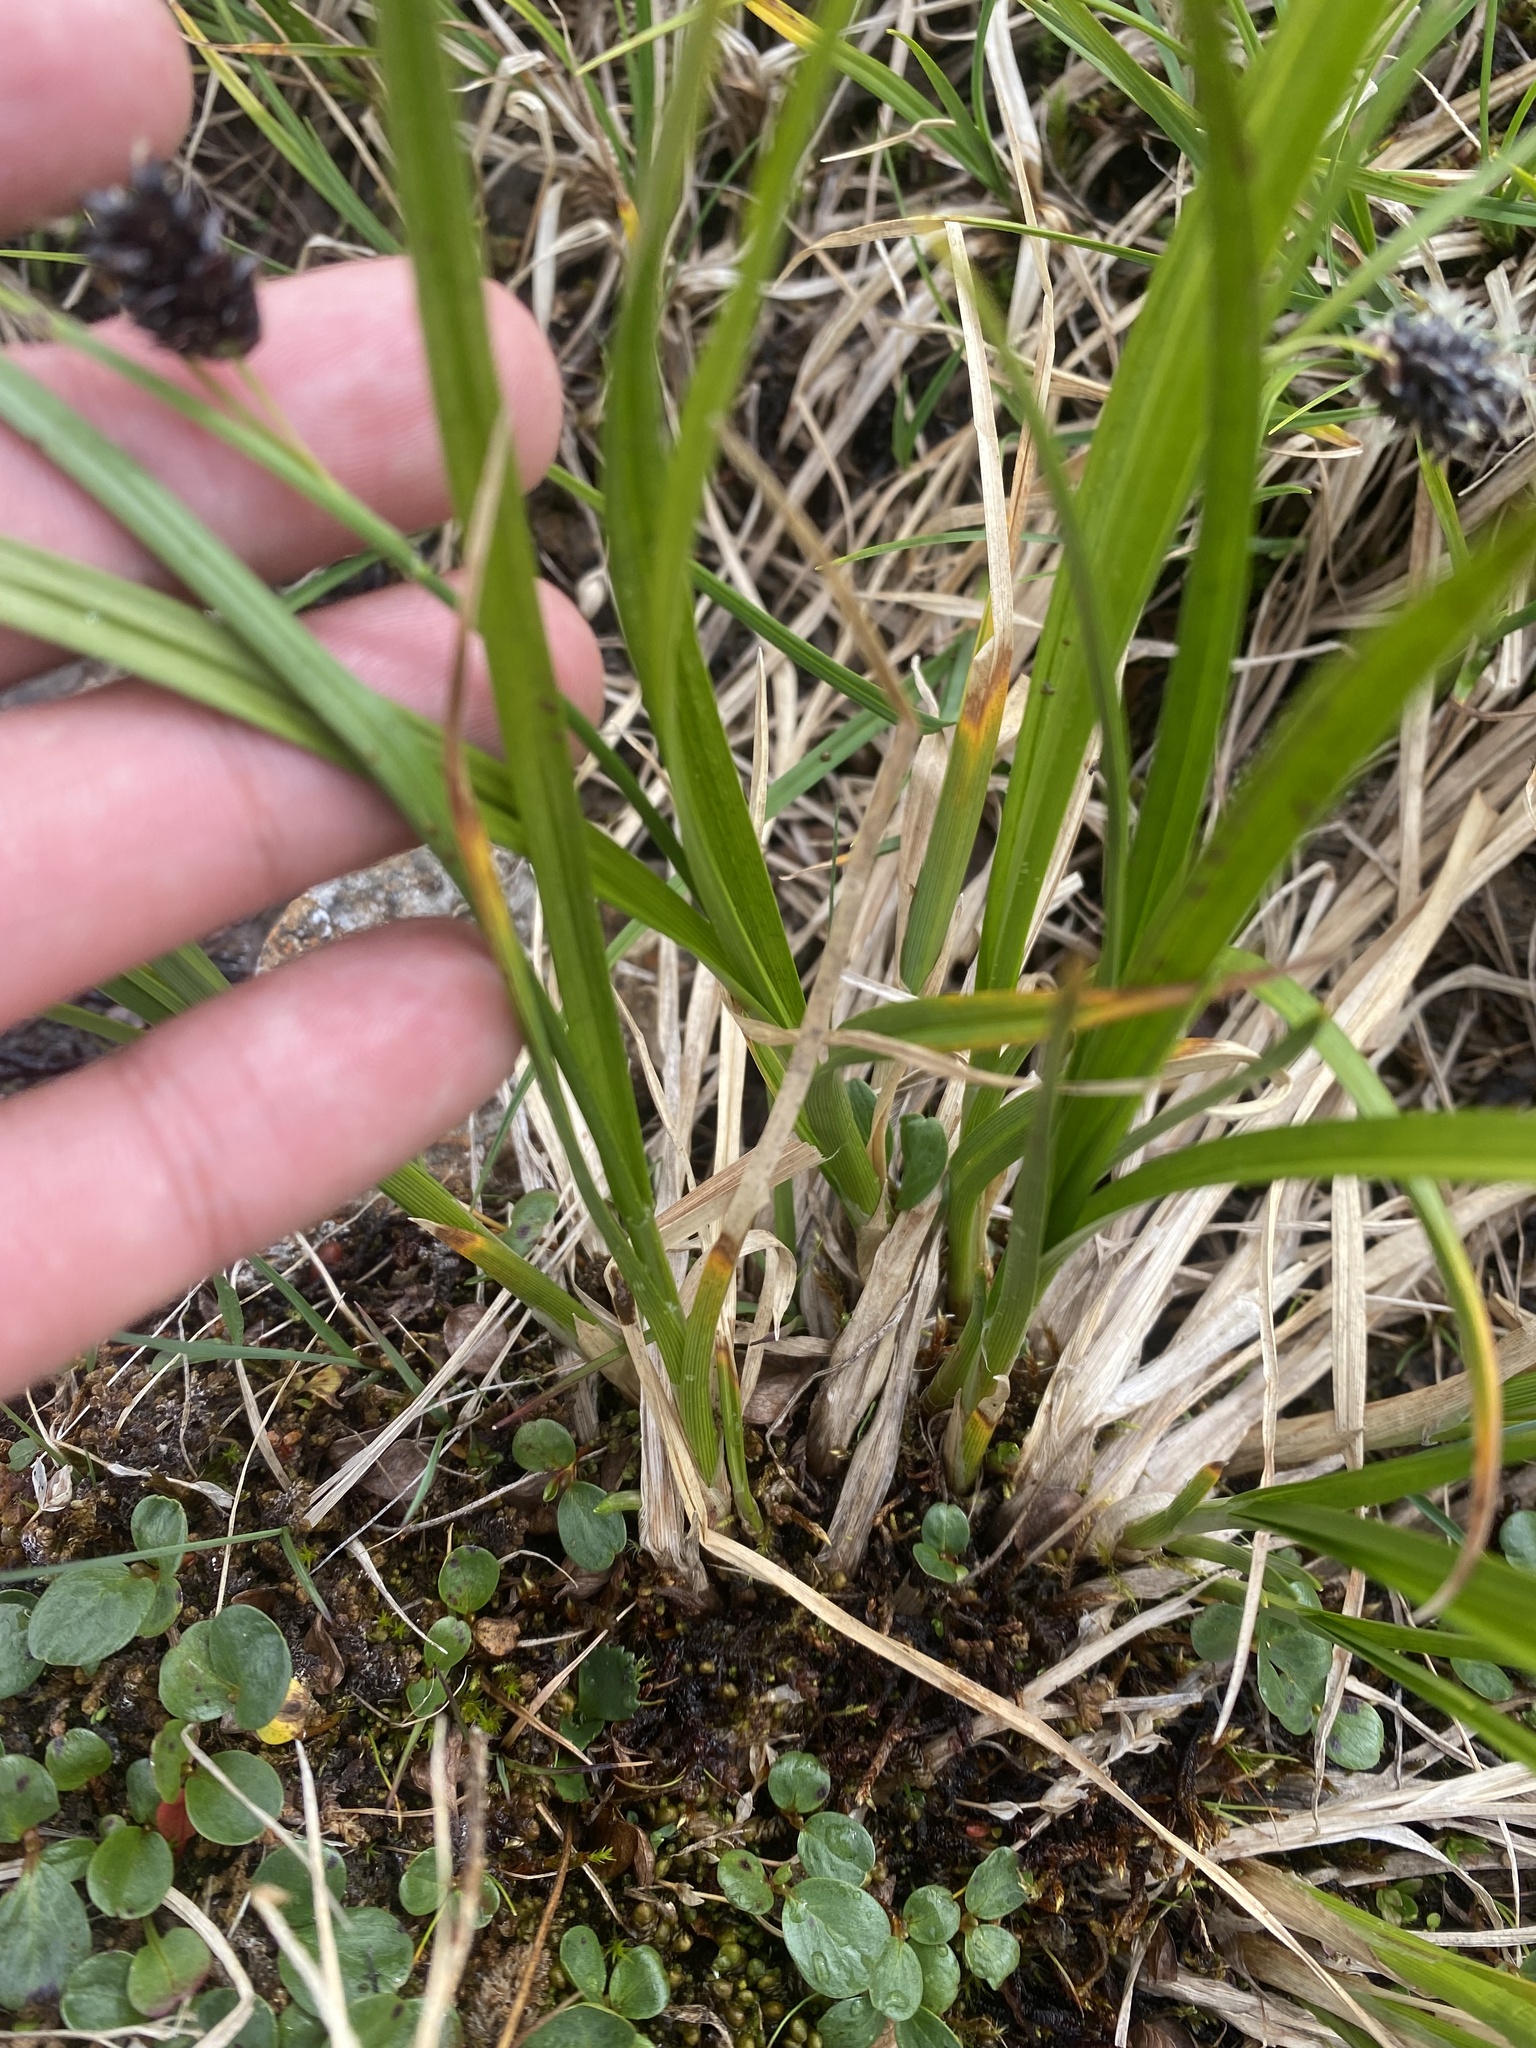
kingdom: Plantae
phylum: Tracheophyta
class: Liliopsida
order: Poales
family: Cyperaceae
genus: Carex
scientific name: Carex saxatilis
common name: Russet sedge
